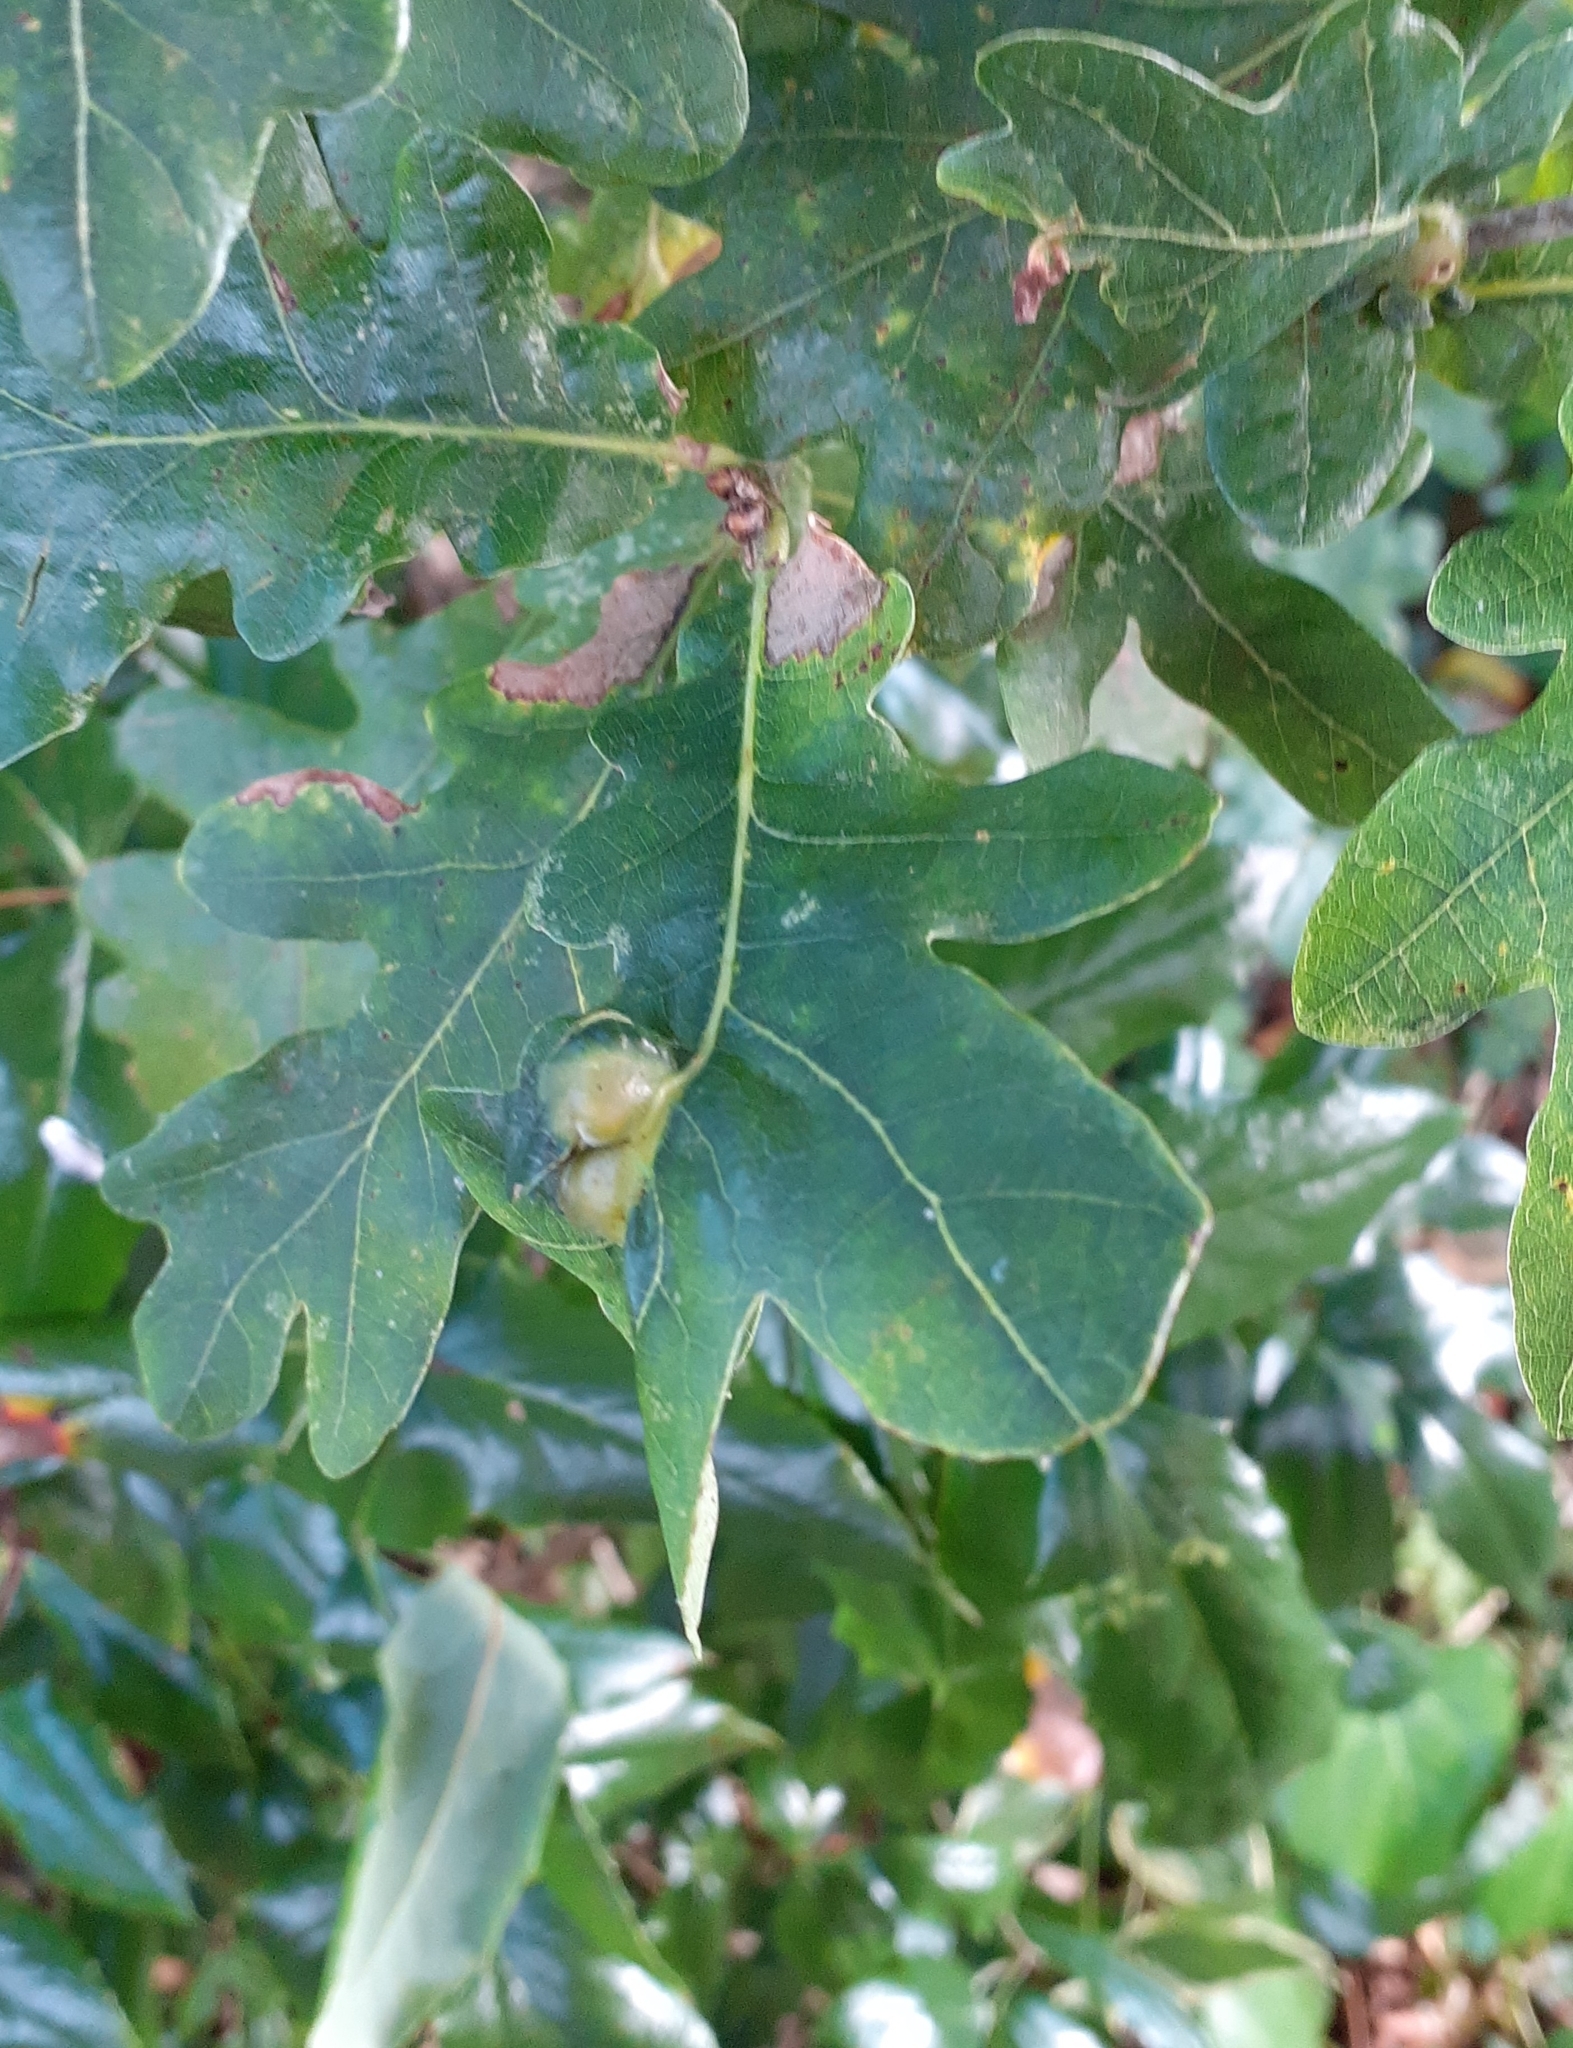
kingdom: Animalia
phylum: Arthropoda
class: Insecta
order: Hymenoptera
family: Cynipidae
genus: Andricus
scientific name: Andricus curvator
